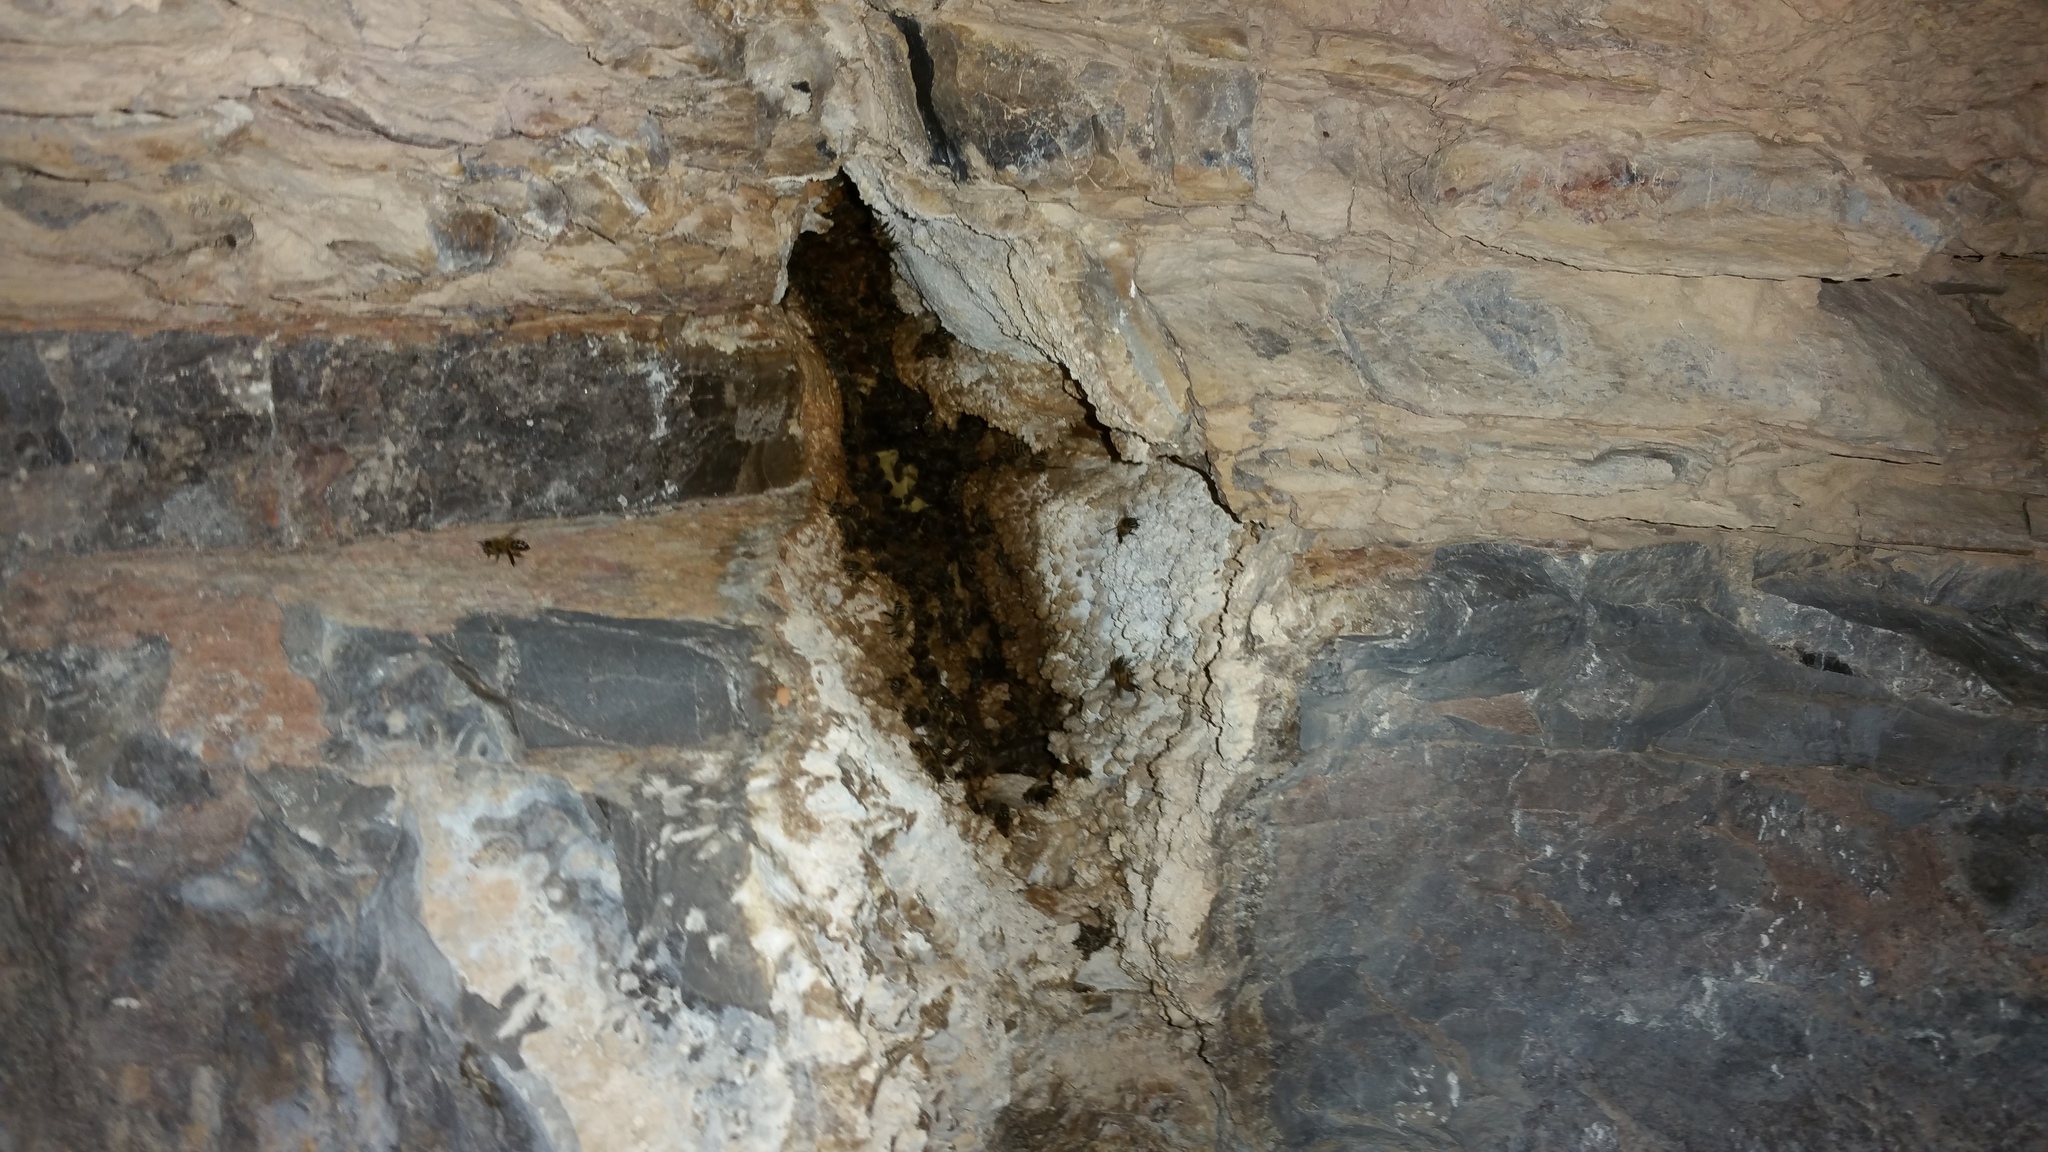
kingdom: Animalia
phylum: Arthropoda
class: Insecta
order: Hymenoptera
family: Apidae
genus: Apis
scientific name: Apis mellifera
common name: Honey bee
